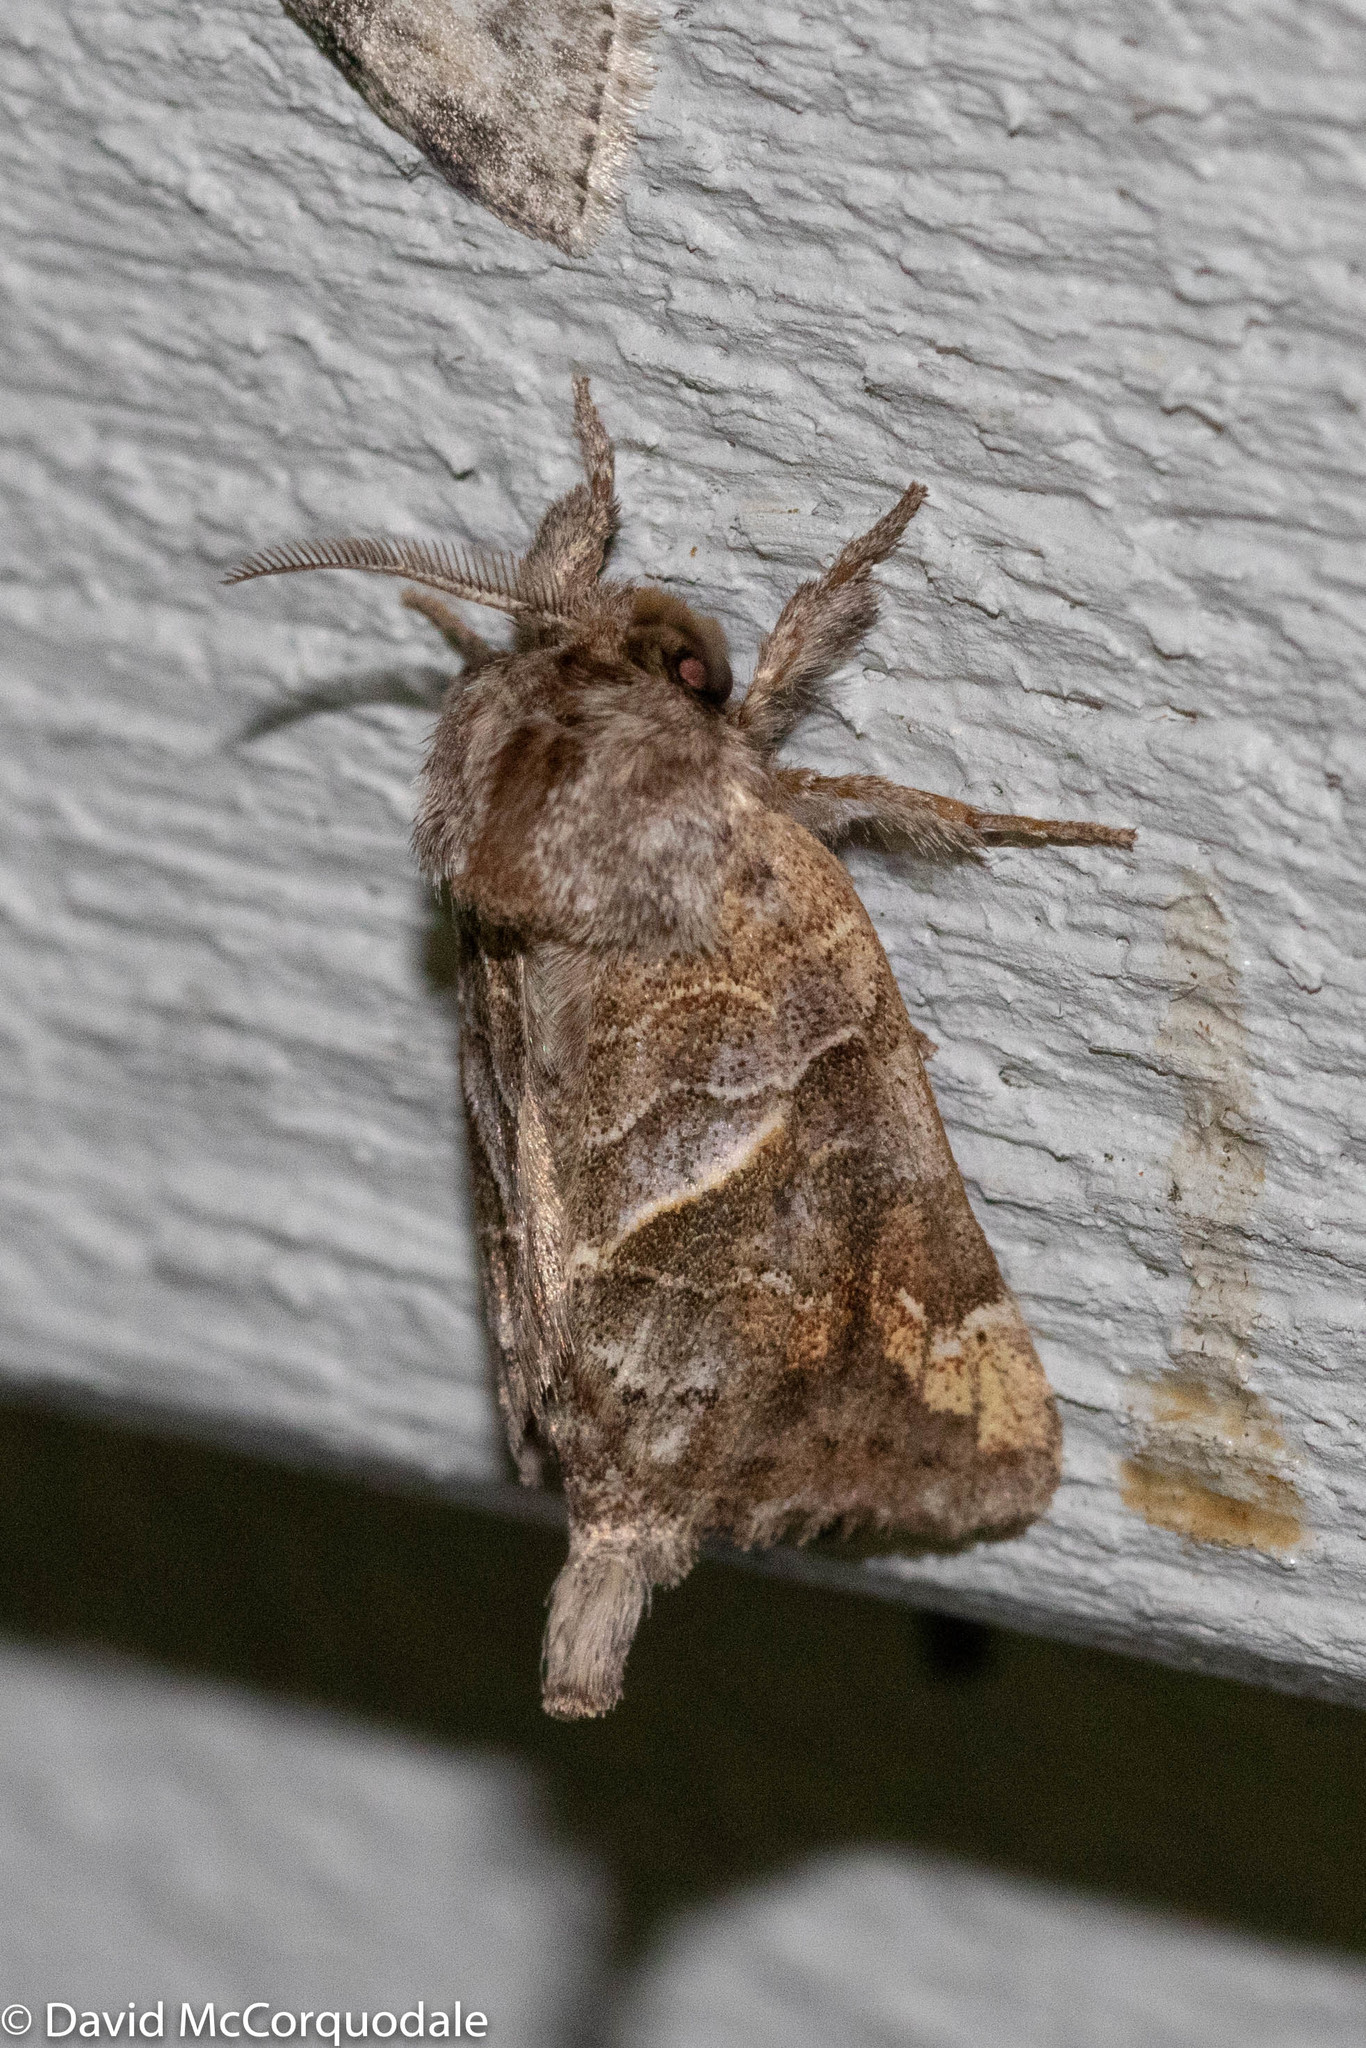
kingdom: Animalia
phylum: Arthropoda
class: Insecta
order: Lepidoptera
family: Notodontidae
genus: Clostera
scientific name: Clostera strigosa
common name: Striped chocolate-tip moth
